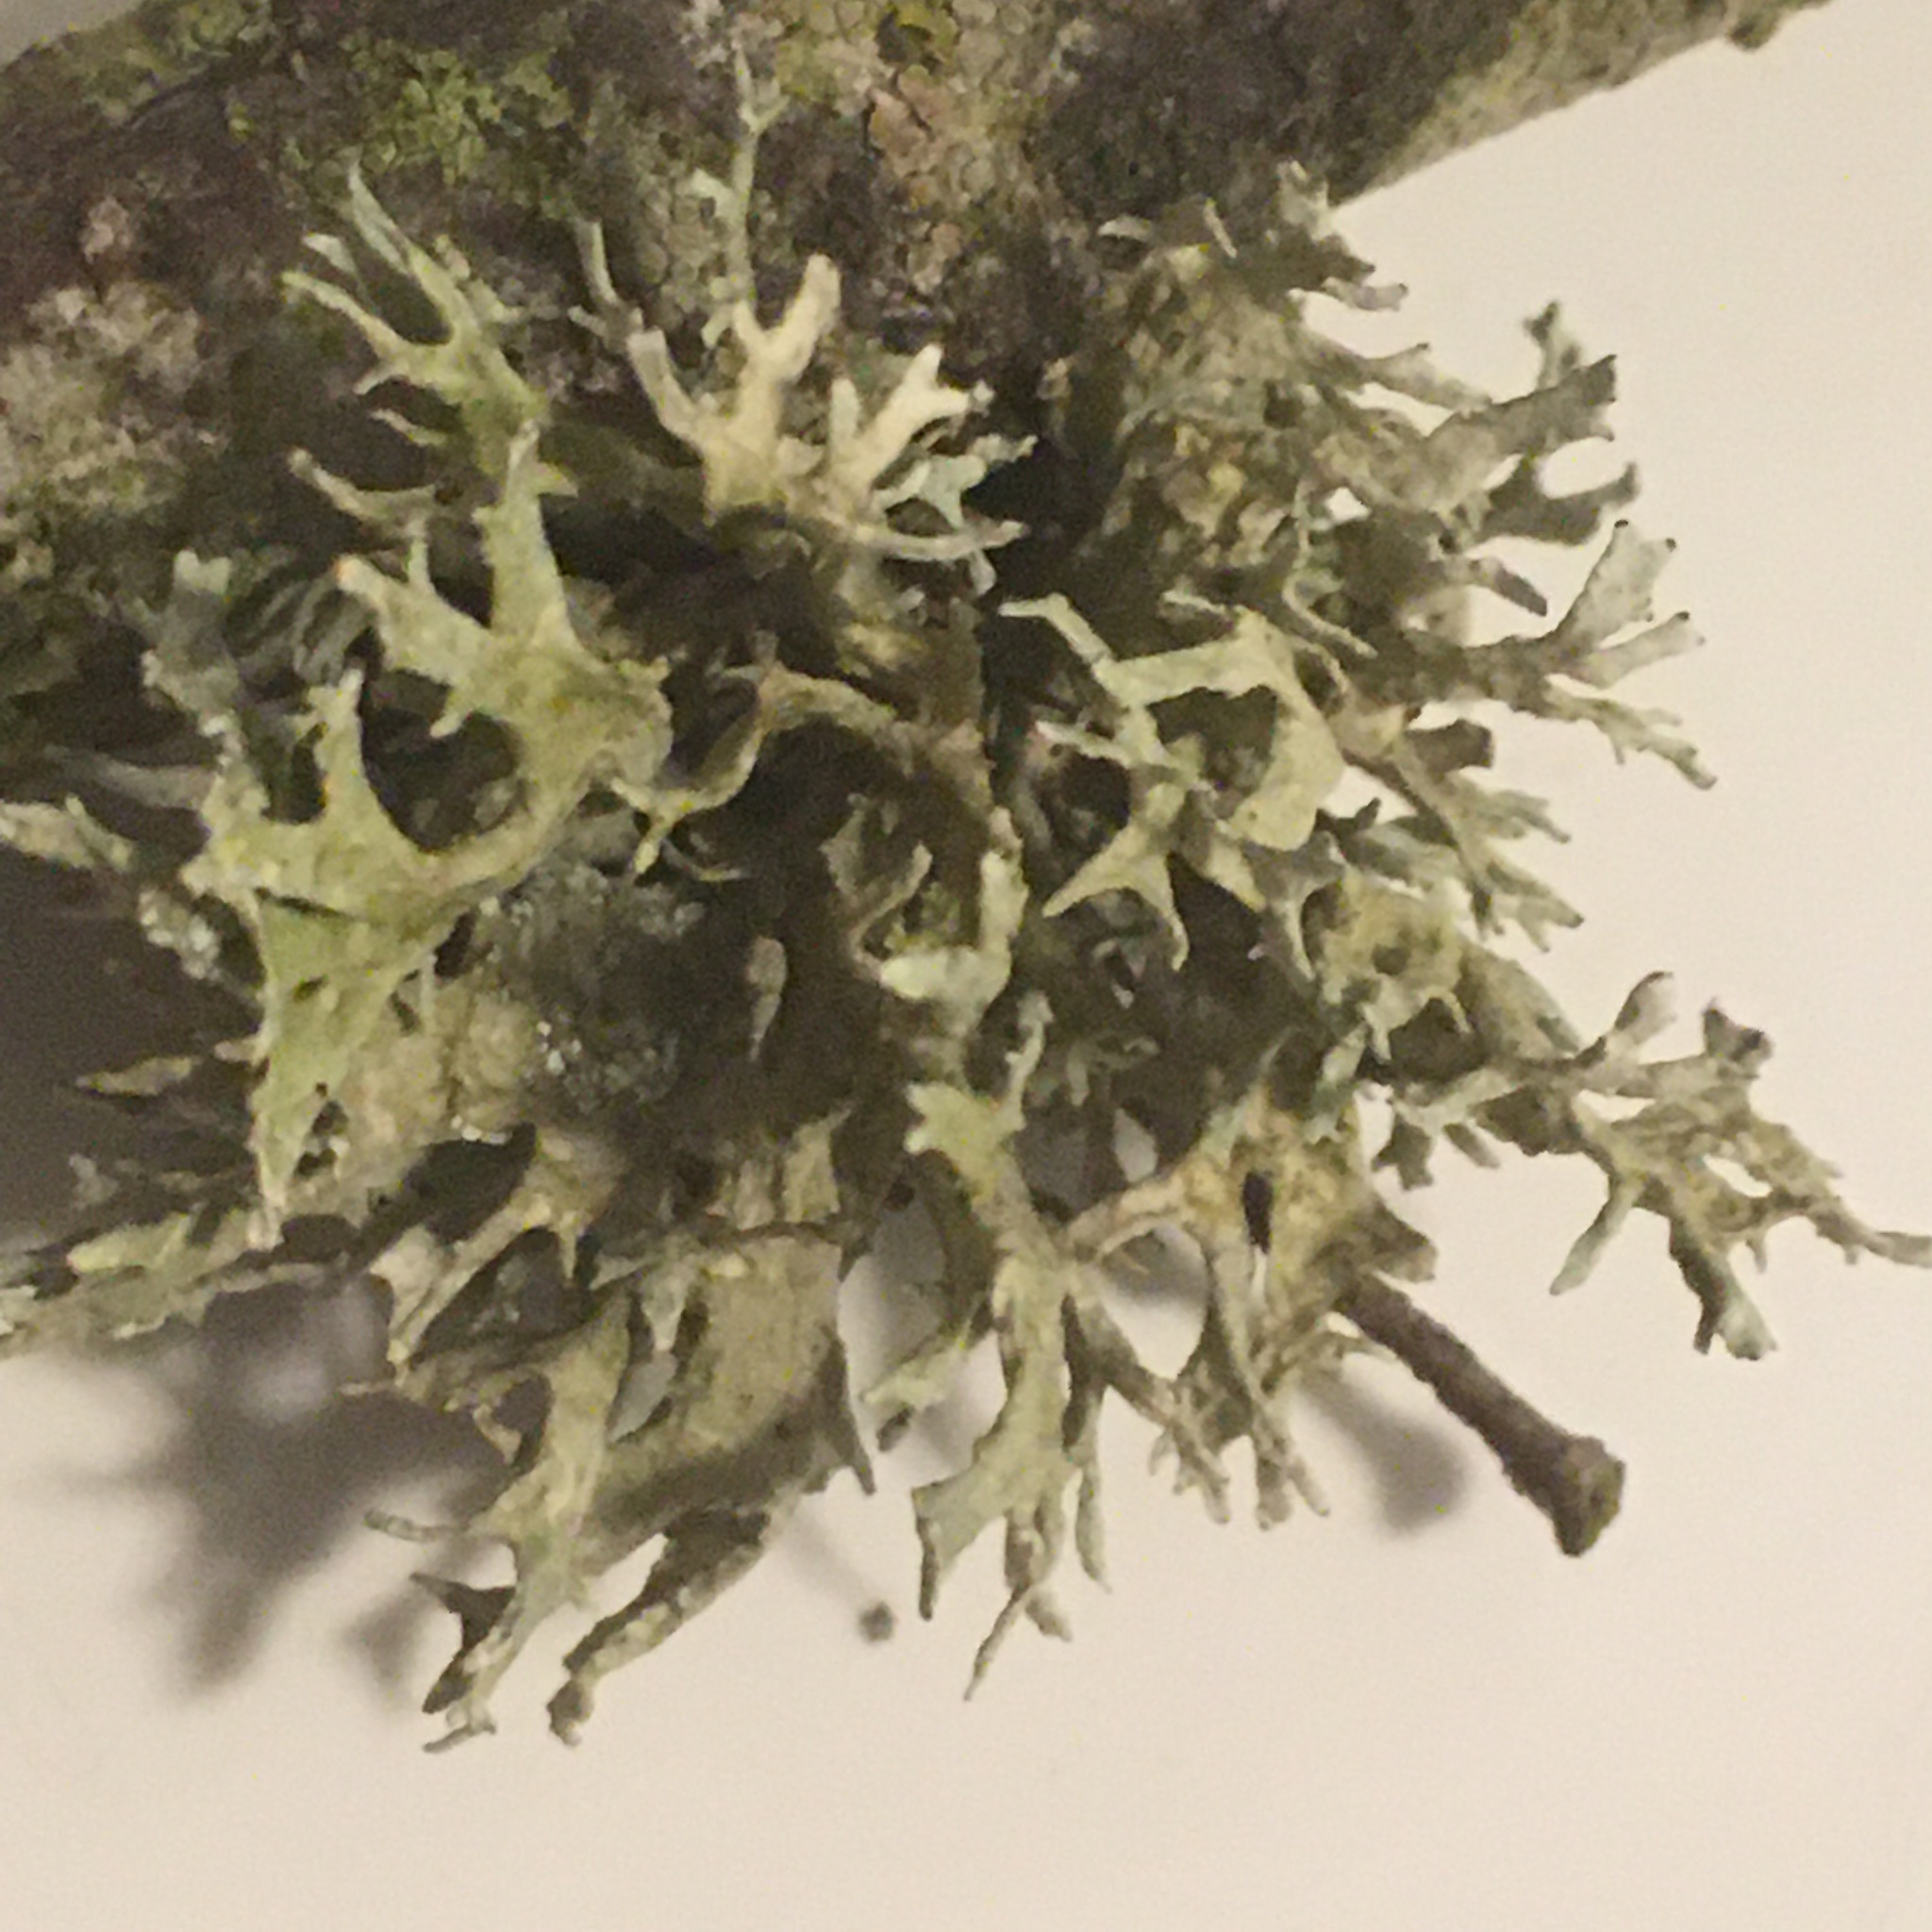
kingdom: Fungi
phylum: Ascomycota
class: Lecanoromycetes
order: Lecanorales
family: Parmeliaceae
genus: Evernia
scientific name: Evernia prunastri
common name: Oak moss
